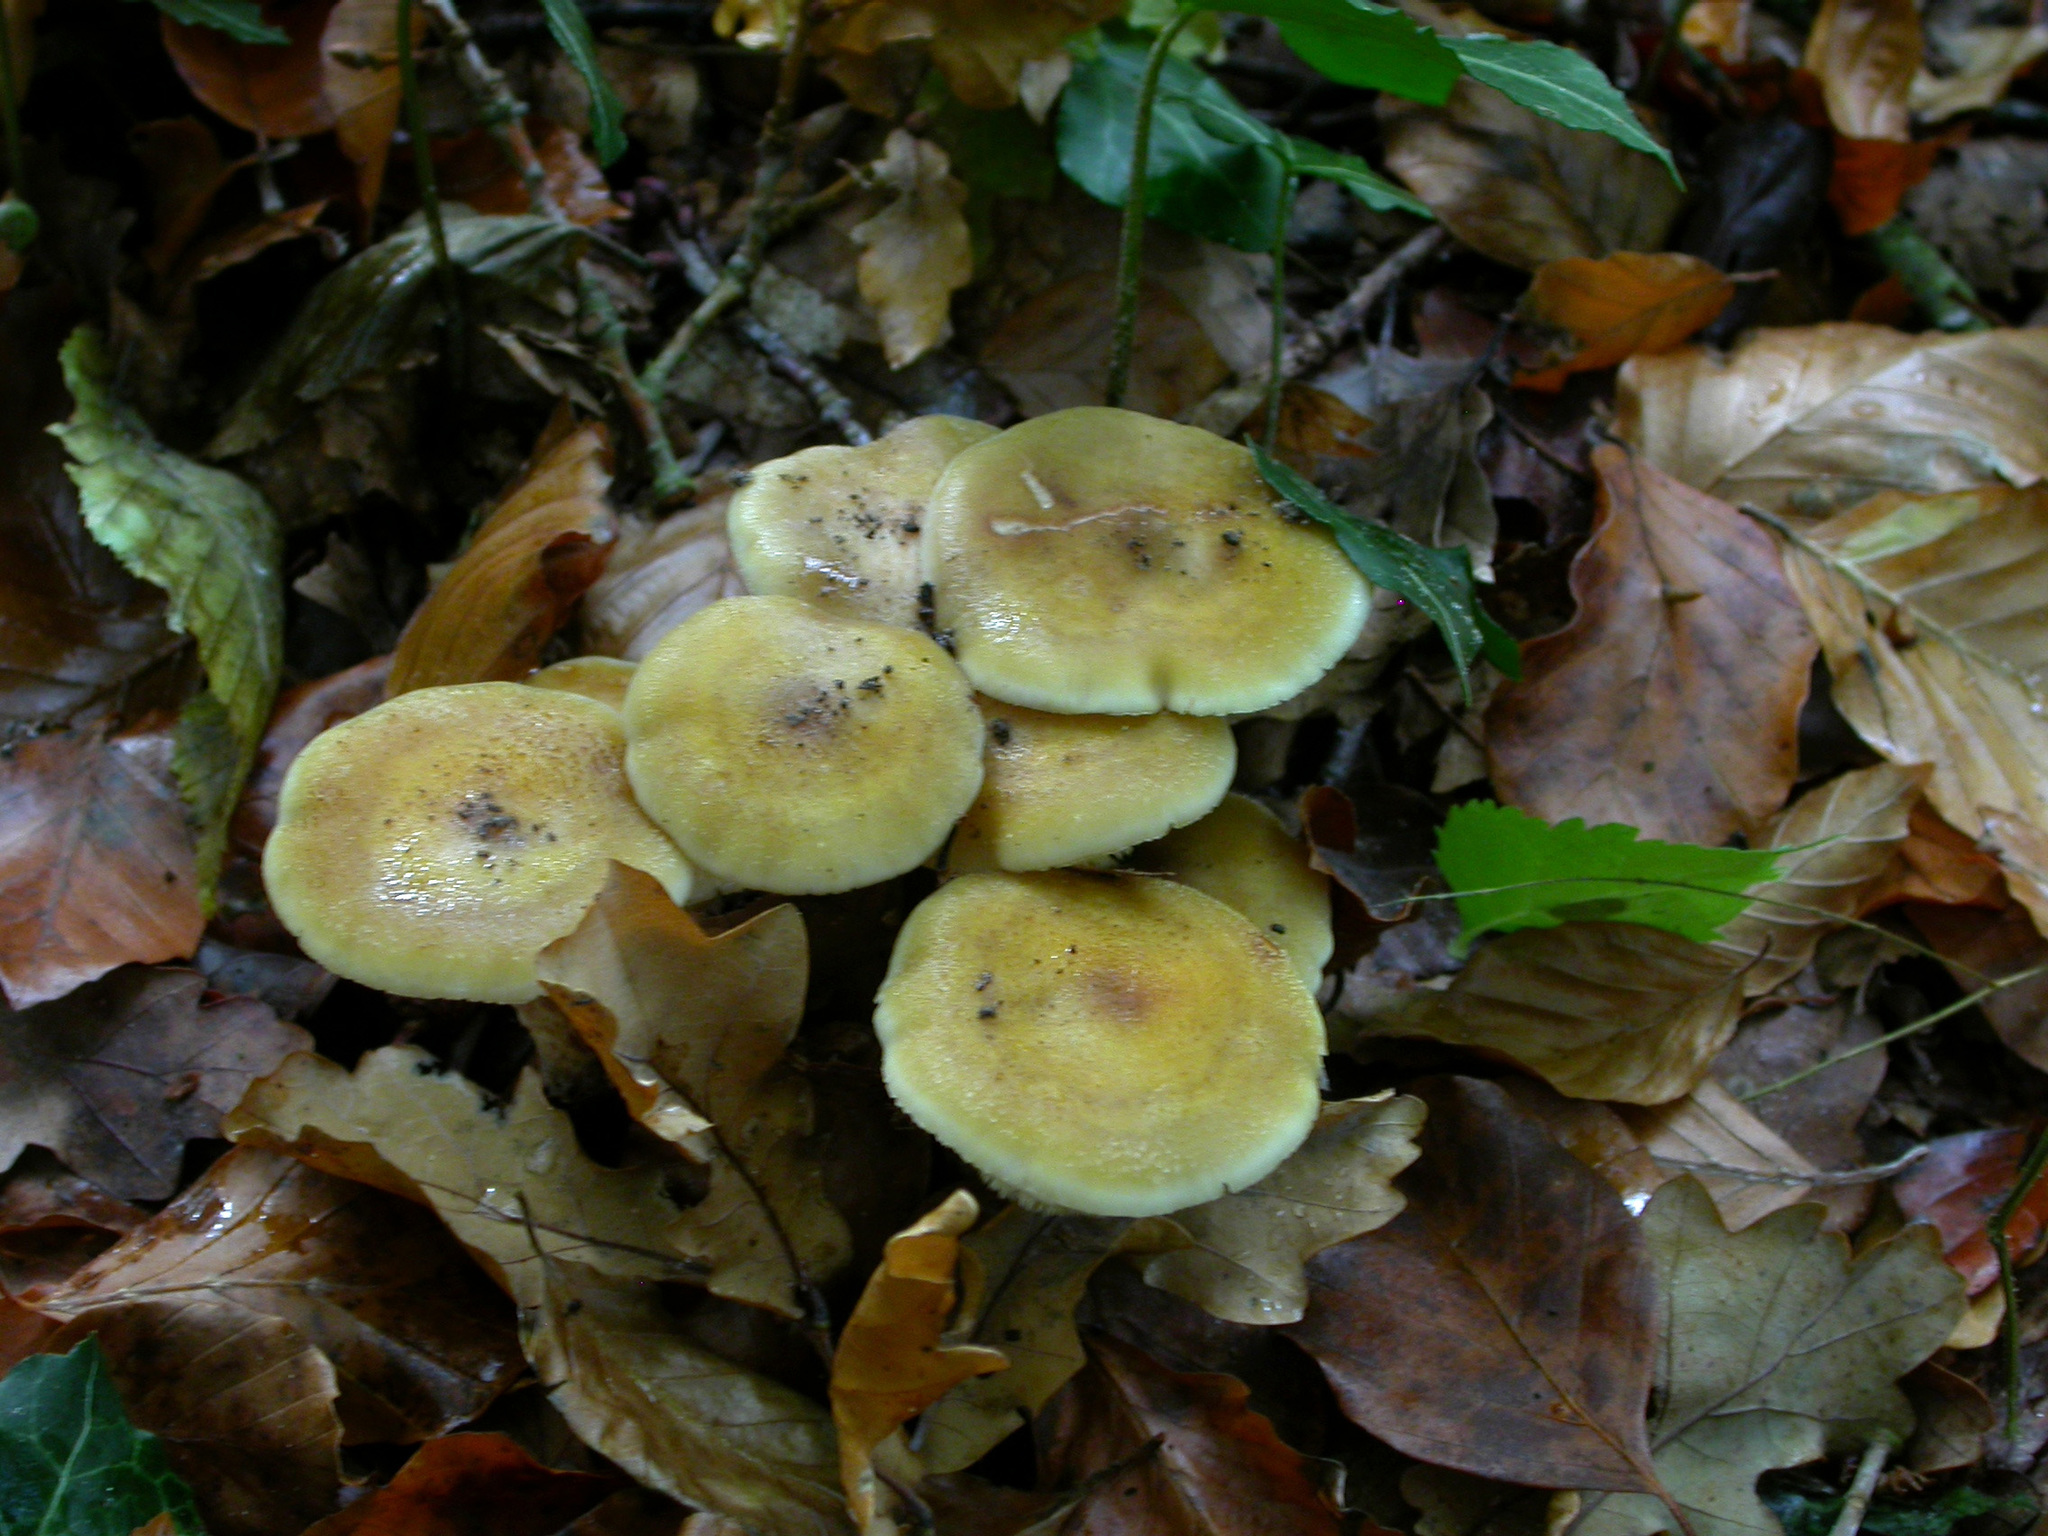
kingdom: Fungi
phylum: Basidiomycota
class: Agaricomycetes
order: Agaricales
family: Physalacriaceae
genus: Armillaria
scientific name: Armillaria mellea
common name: Honey fungus
